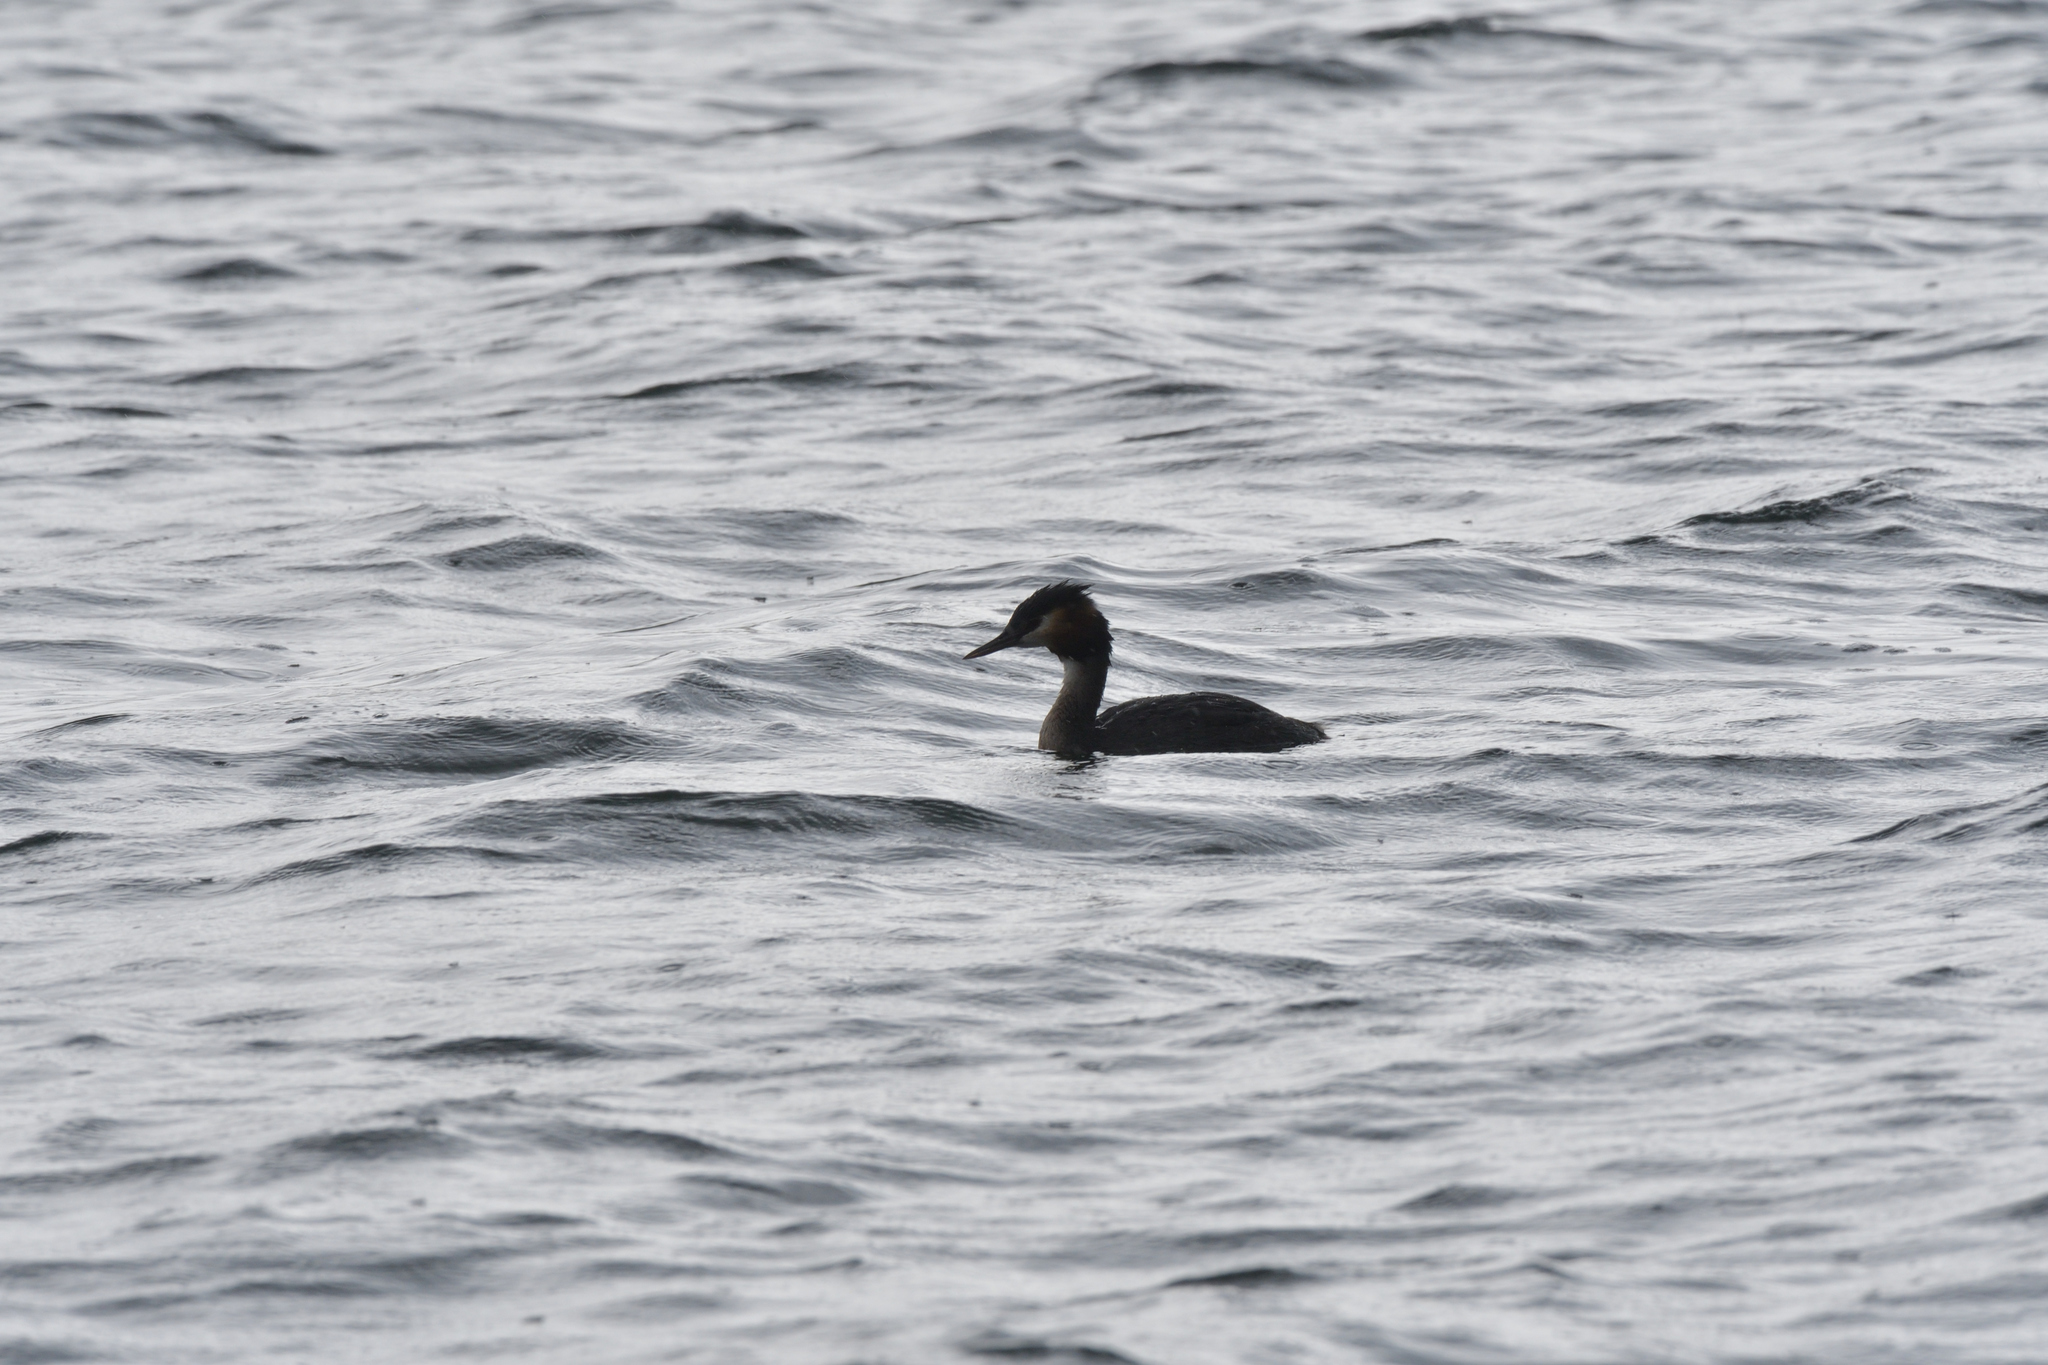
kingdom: Animalia
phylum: Chordata
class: Aves
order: Podicipediformes
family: Podicipedidae
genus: Podiceps
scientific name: Podiceps cristatus
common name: Great crested grebe
